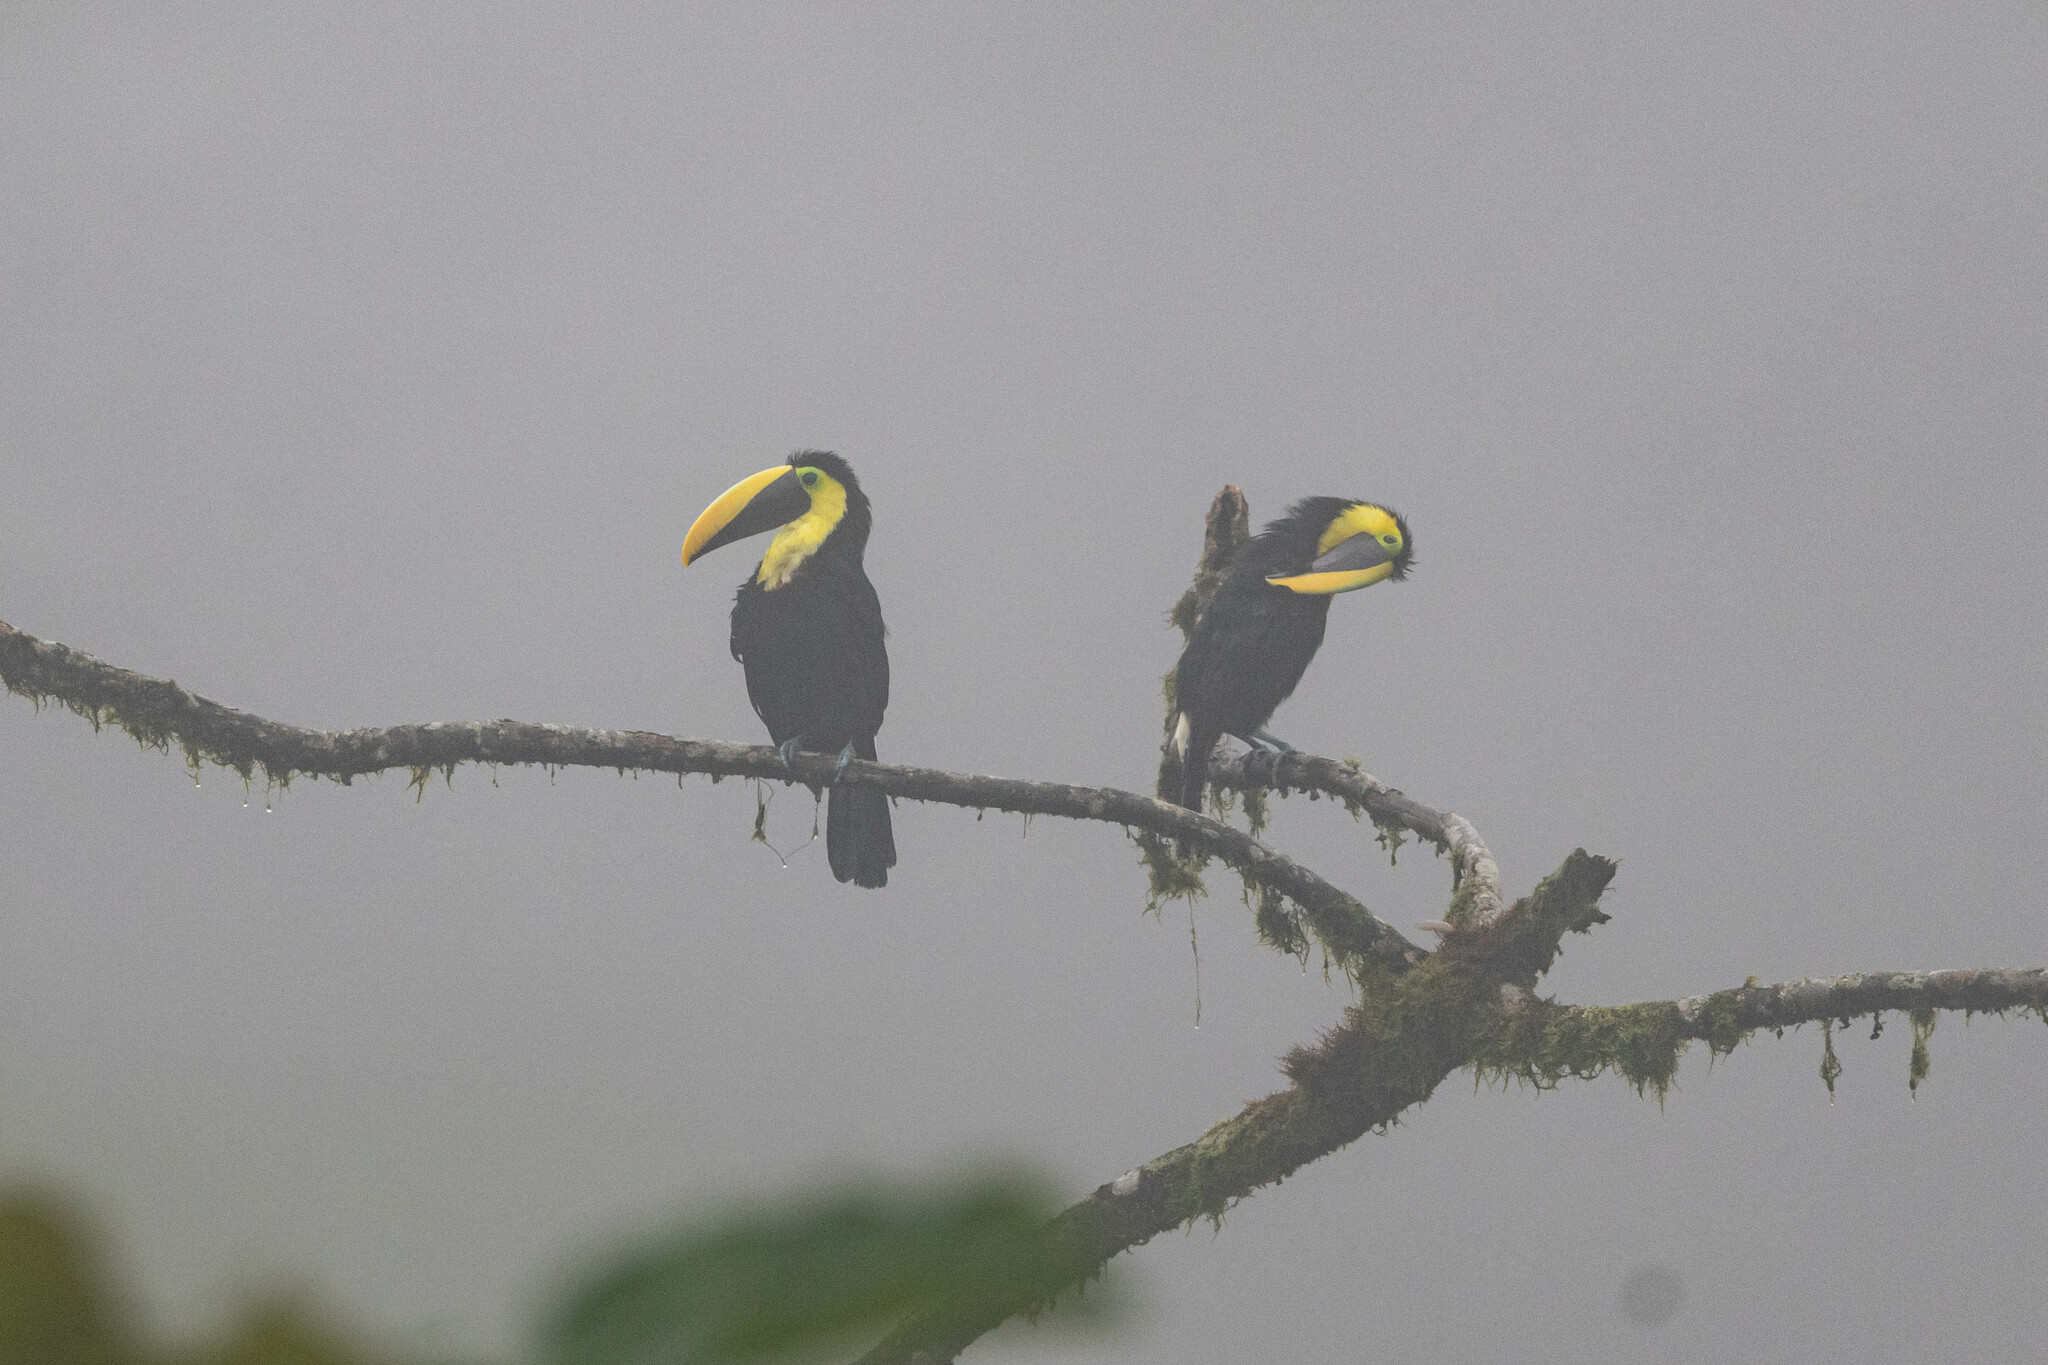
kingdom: Animalia
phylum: Chordata
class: Aves
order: Piciformes
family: Ramphastidae
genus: Ramphastos
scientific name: Ramphastos brevis
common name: Choco toucan
